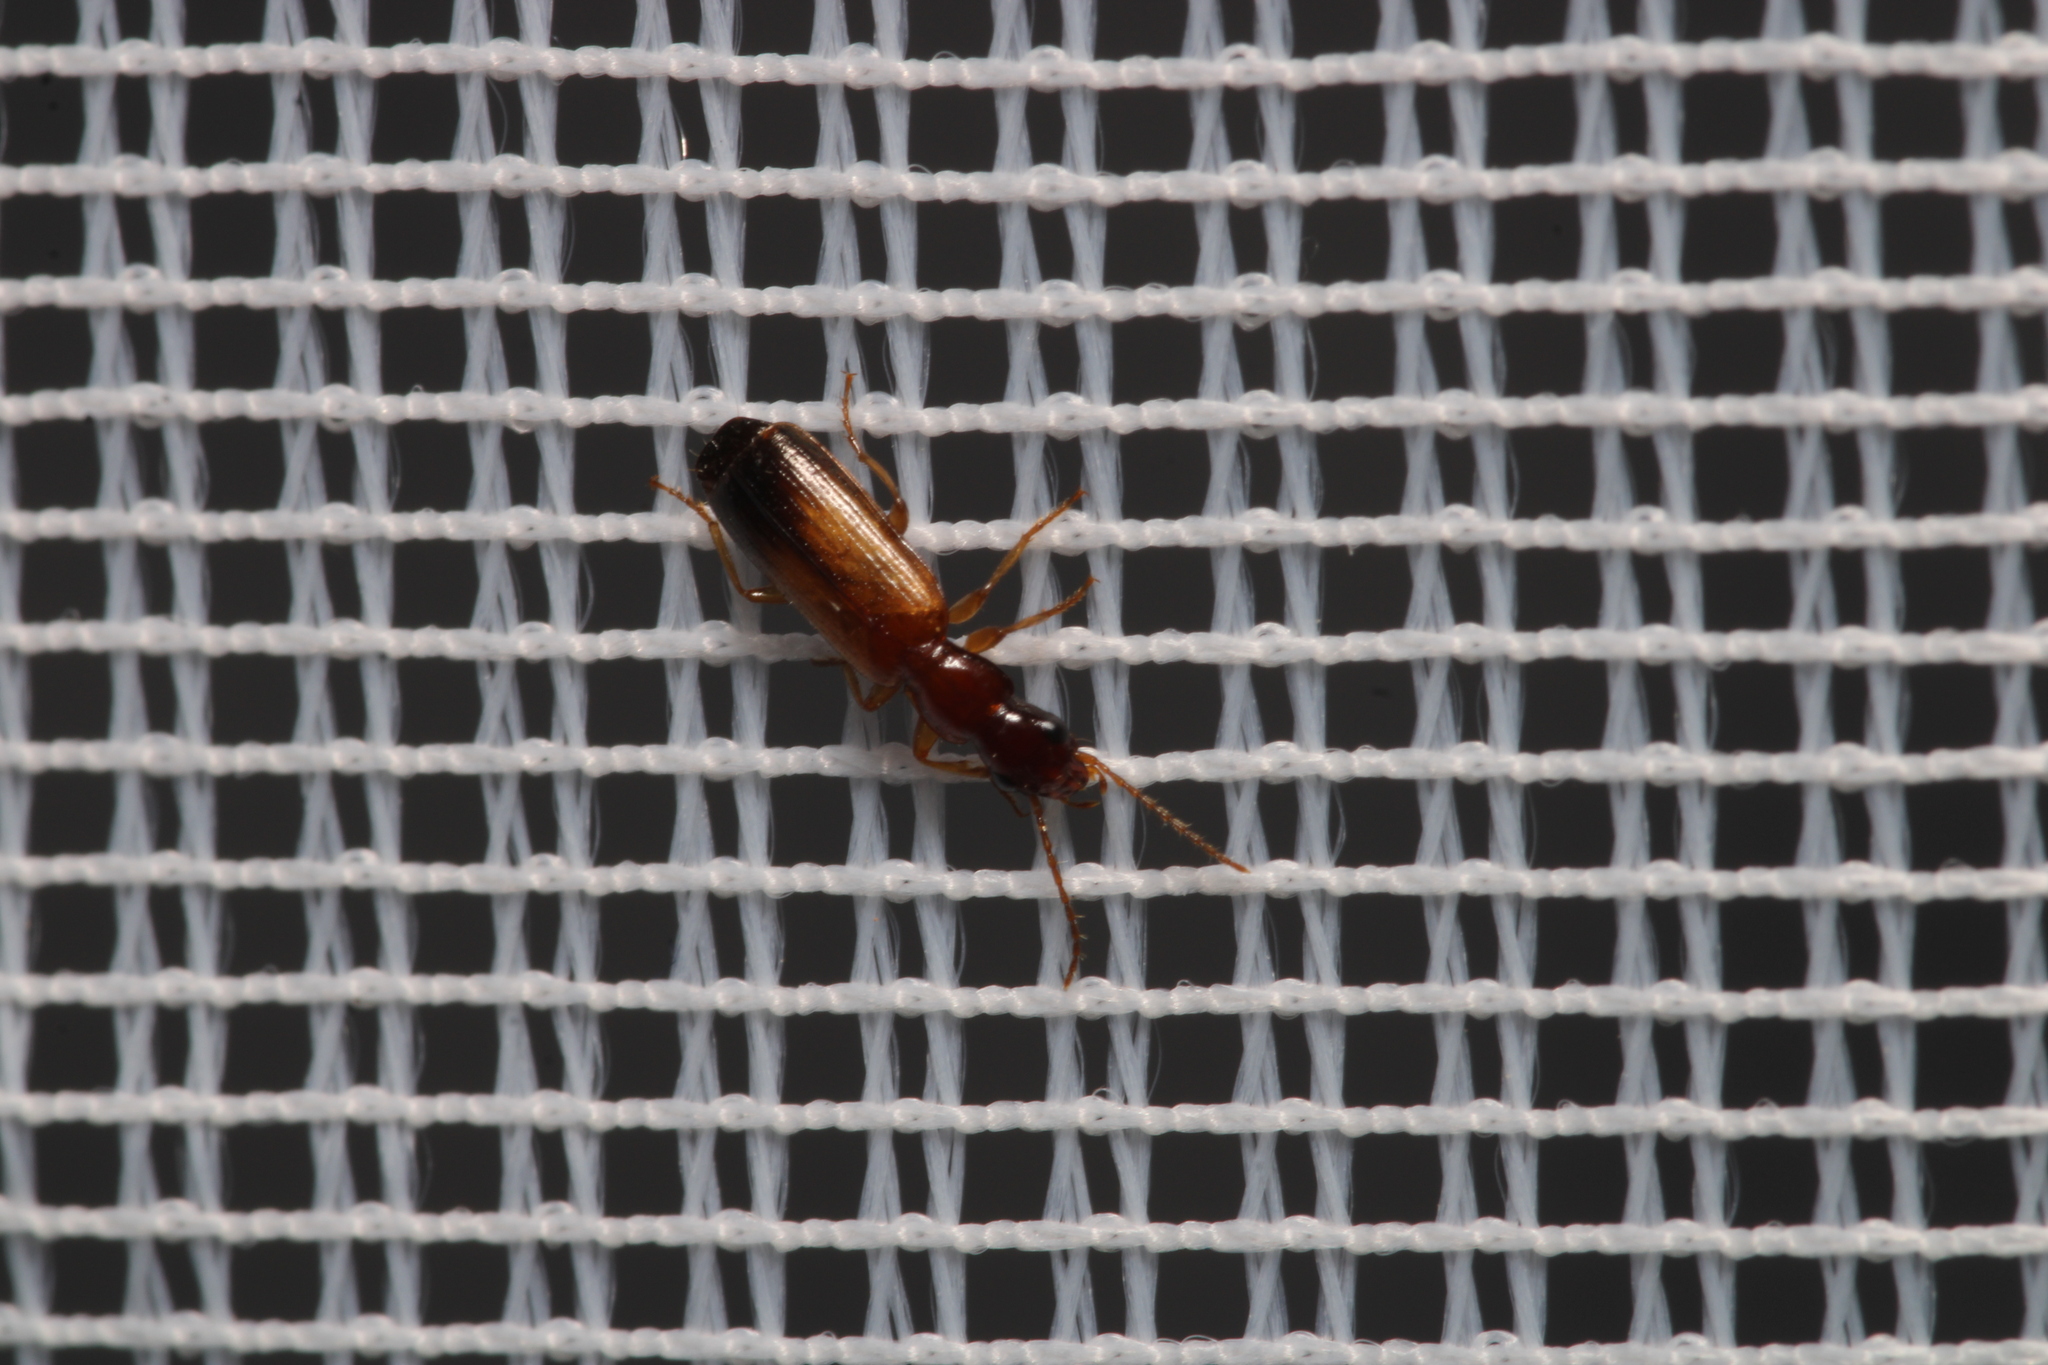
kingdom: Animalia
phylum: Arthropoda
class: Insecta
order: Coleoptera
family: Carabidae
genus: Paradromius
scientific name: Paradromius linearis
